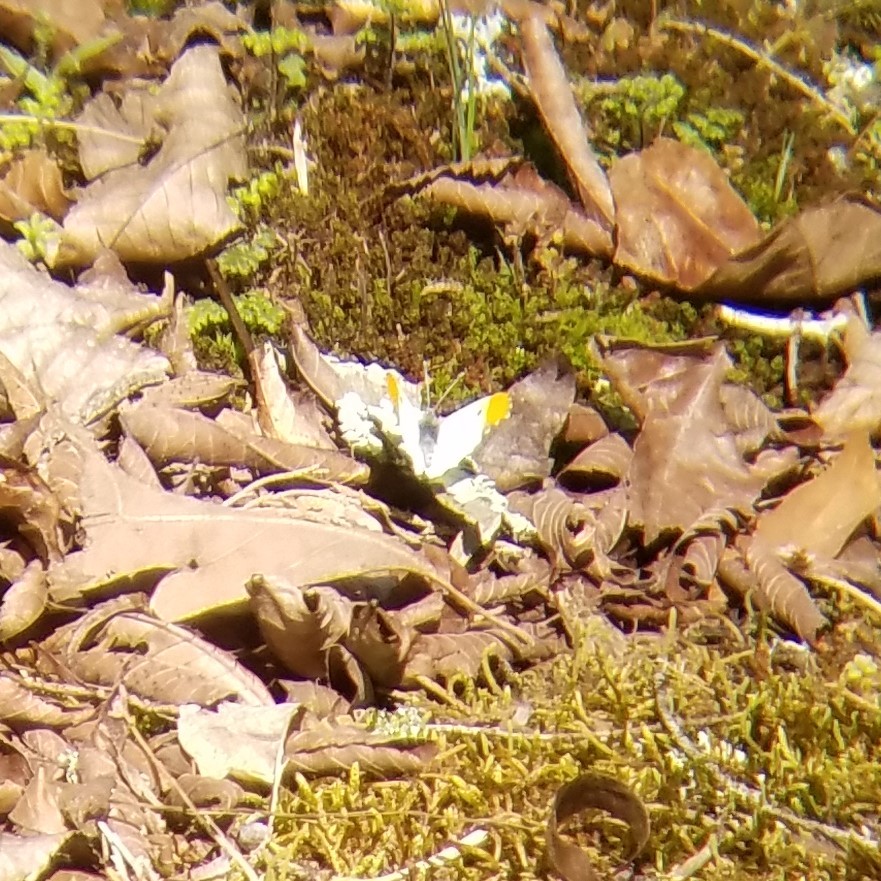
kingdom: Animalia
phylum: Arthropoda
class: Insecta
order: Lepidoptera
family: Pieridae
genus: Anthocharis
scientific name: Anthocharis midea
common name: Falcate orangetip
